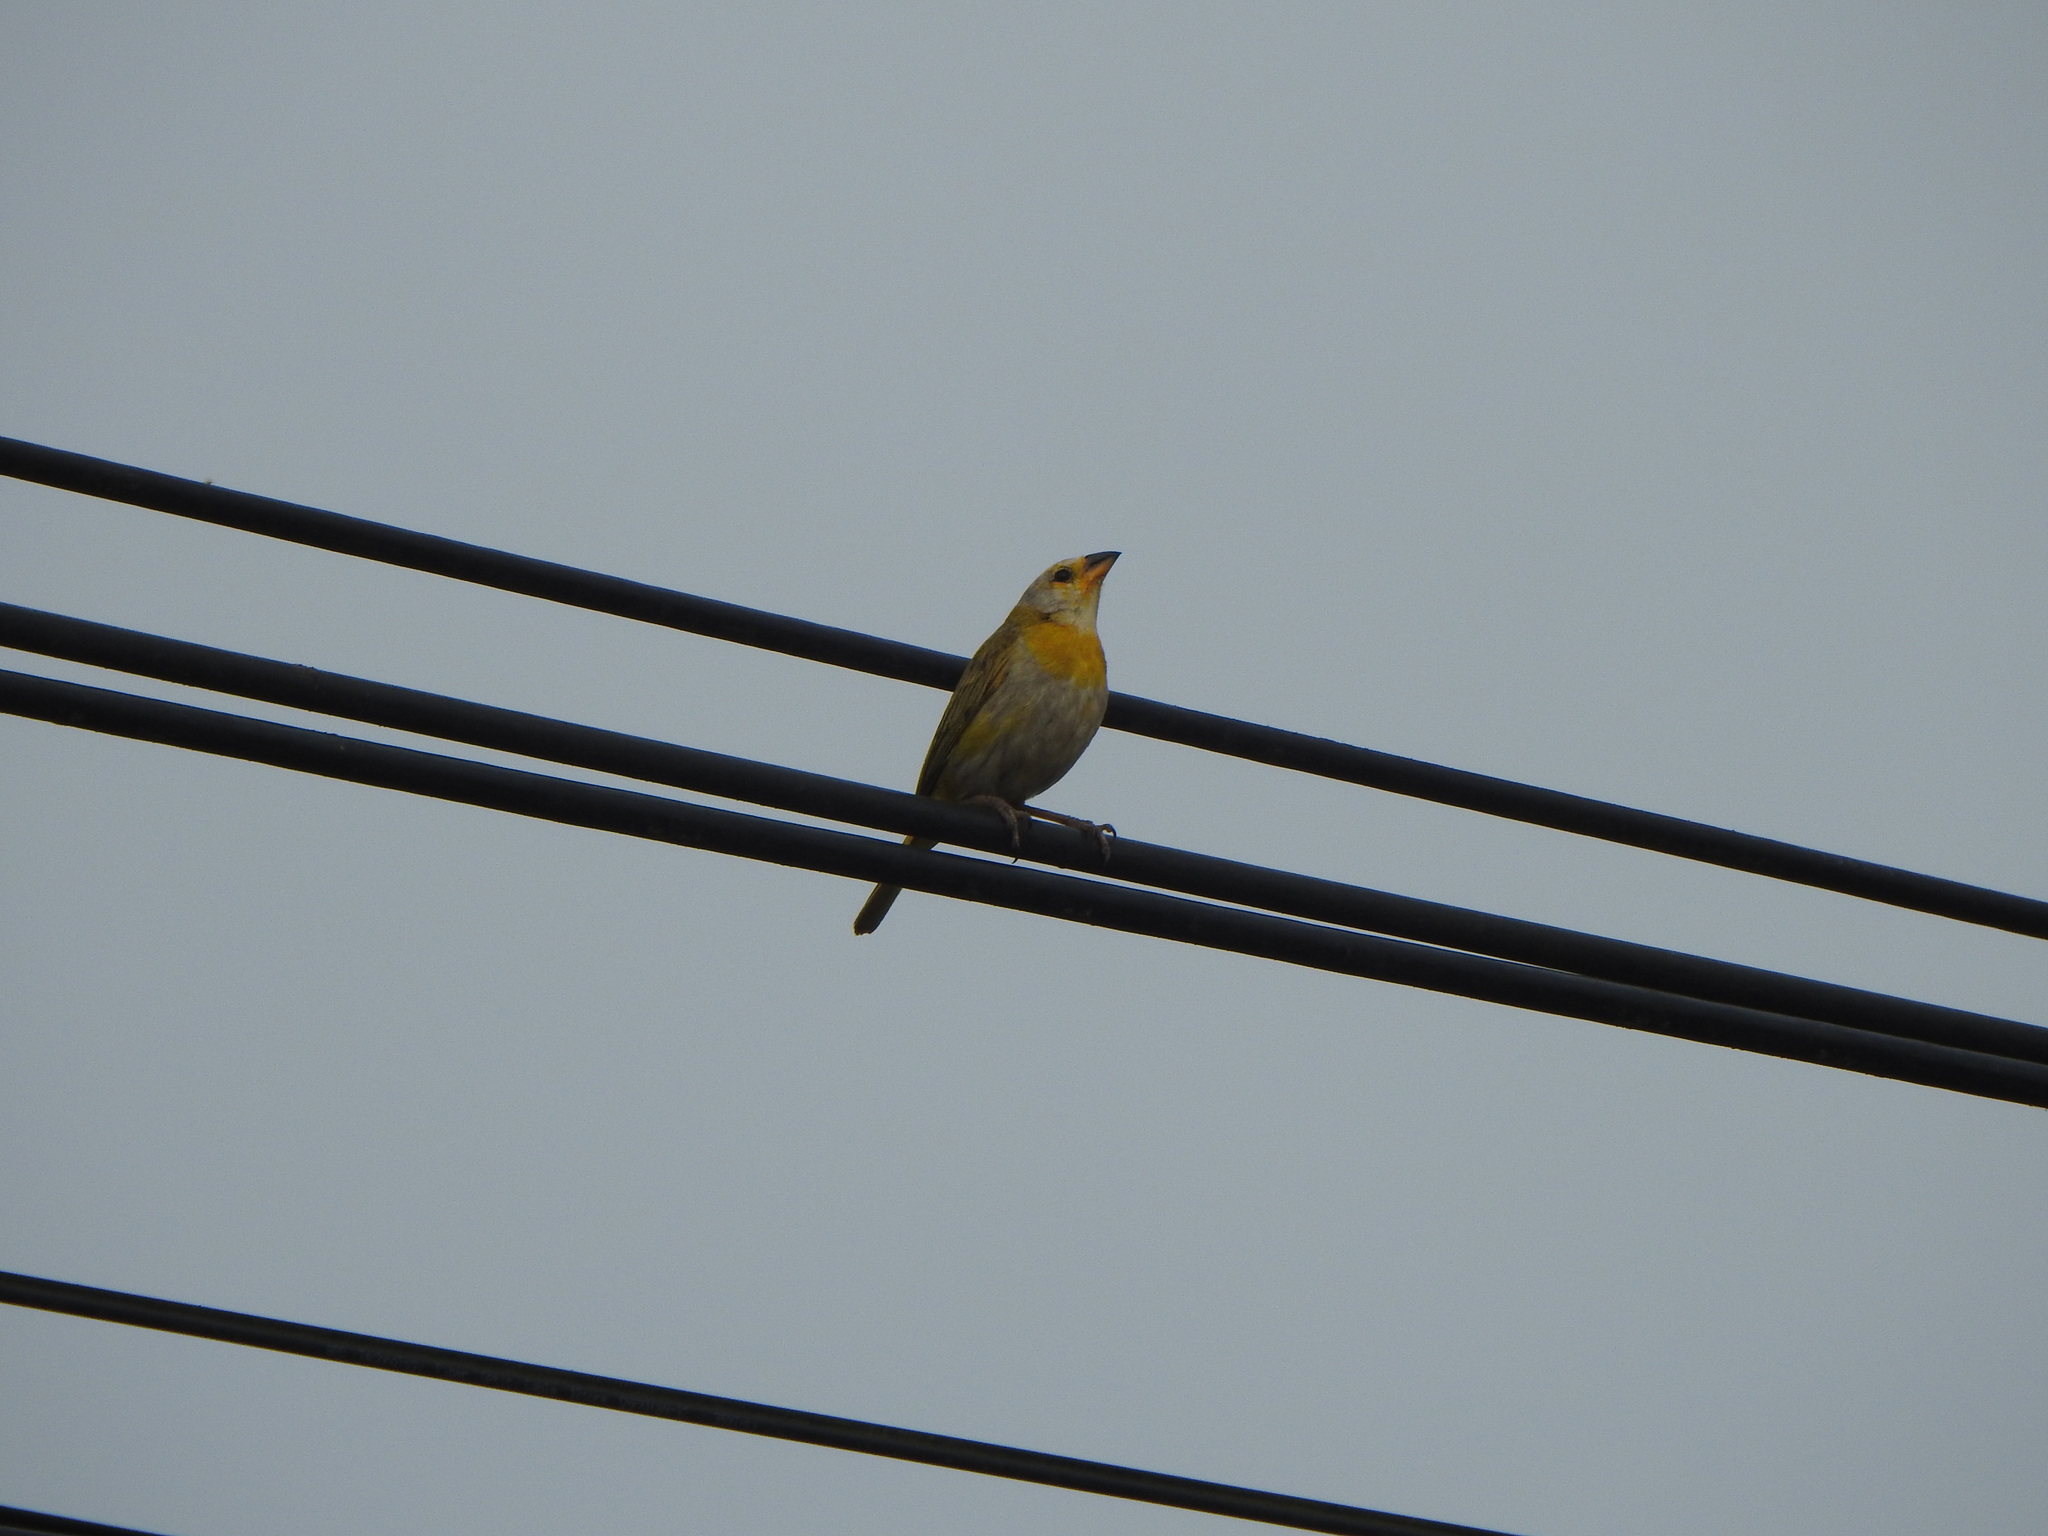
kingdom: Animalia
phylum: Chordata
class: Aves
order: Passeriformes
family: Thraupidae
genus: Sicalis
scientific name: Sicalis flaveola
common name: Saffron finch
